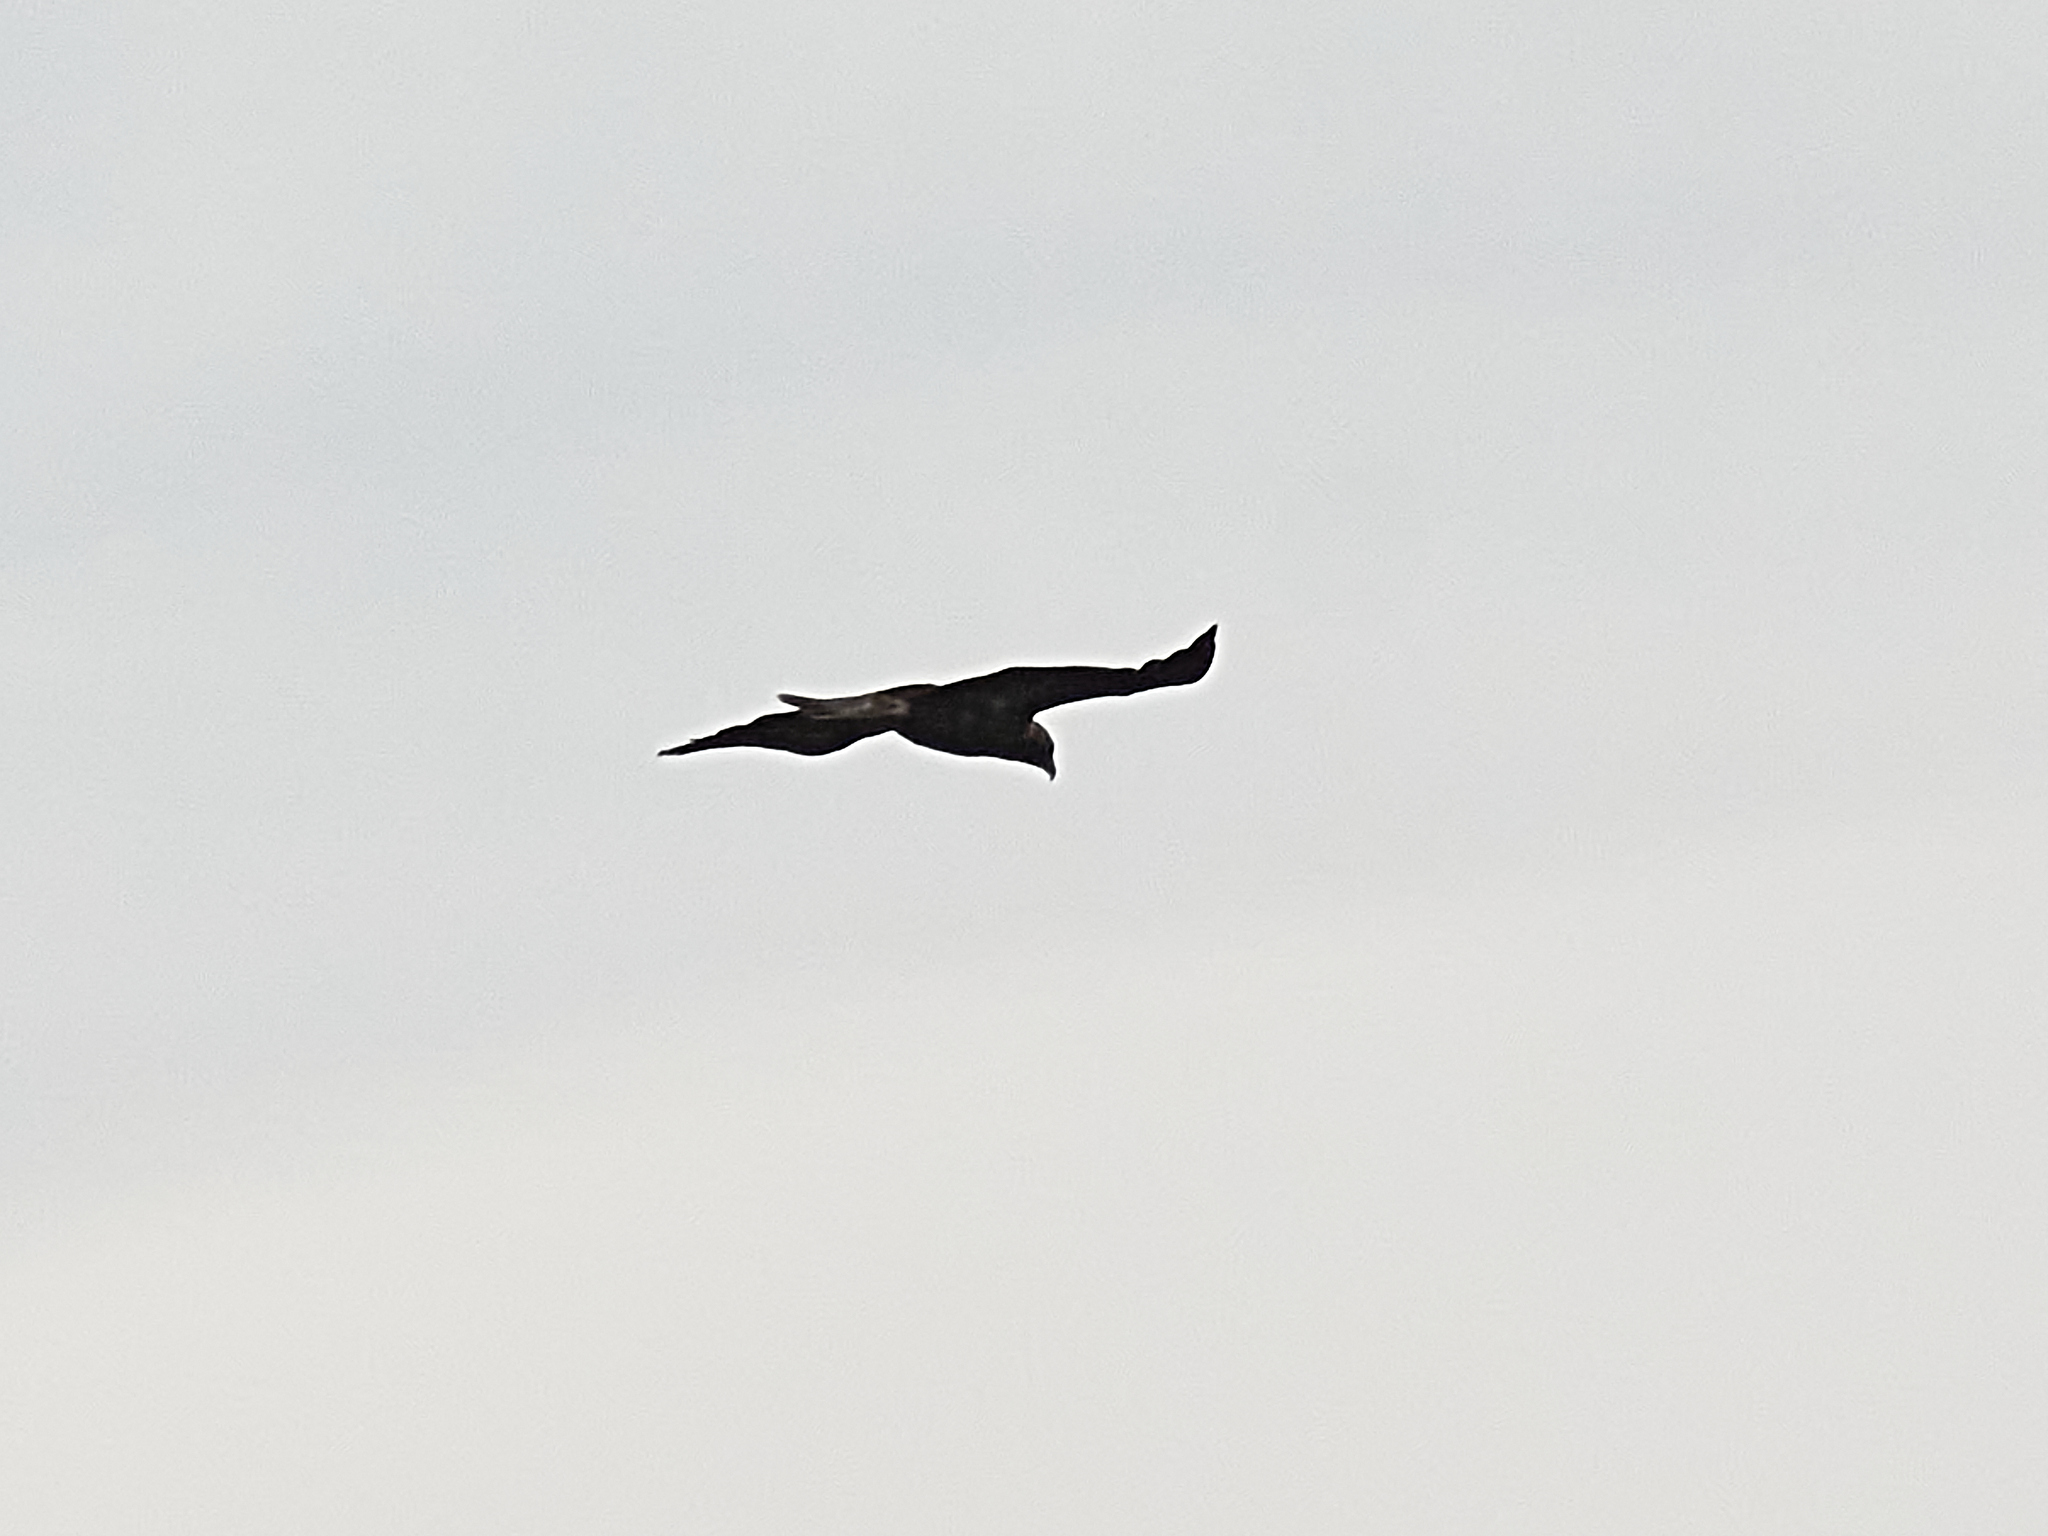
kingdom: Animalia
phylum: Chordata
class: Aves
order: Accipitriformes
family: Accipitridae
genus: Aquila
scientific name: Aquila heliaca
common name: Eastern imperial eagle
